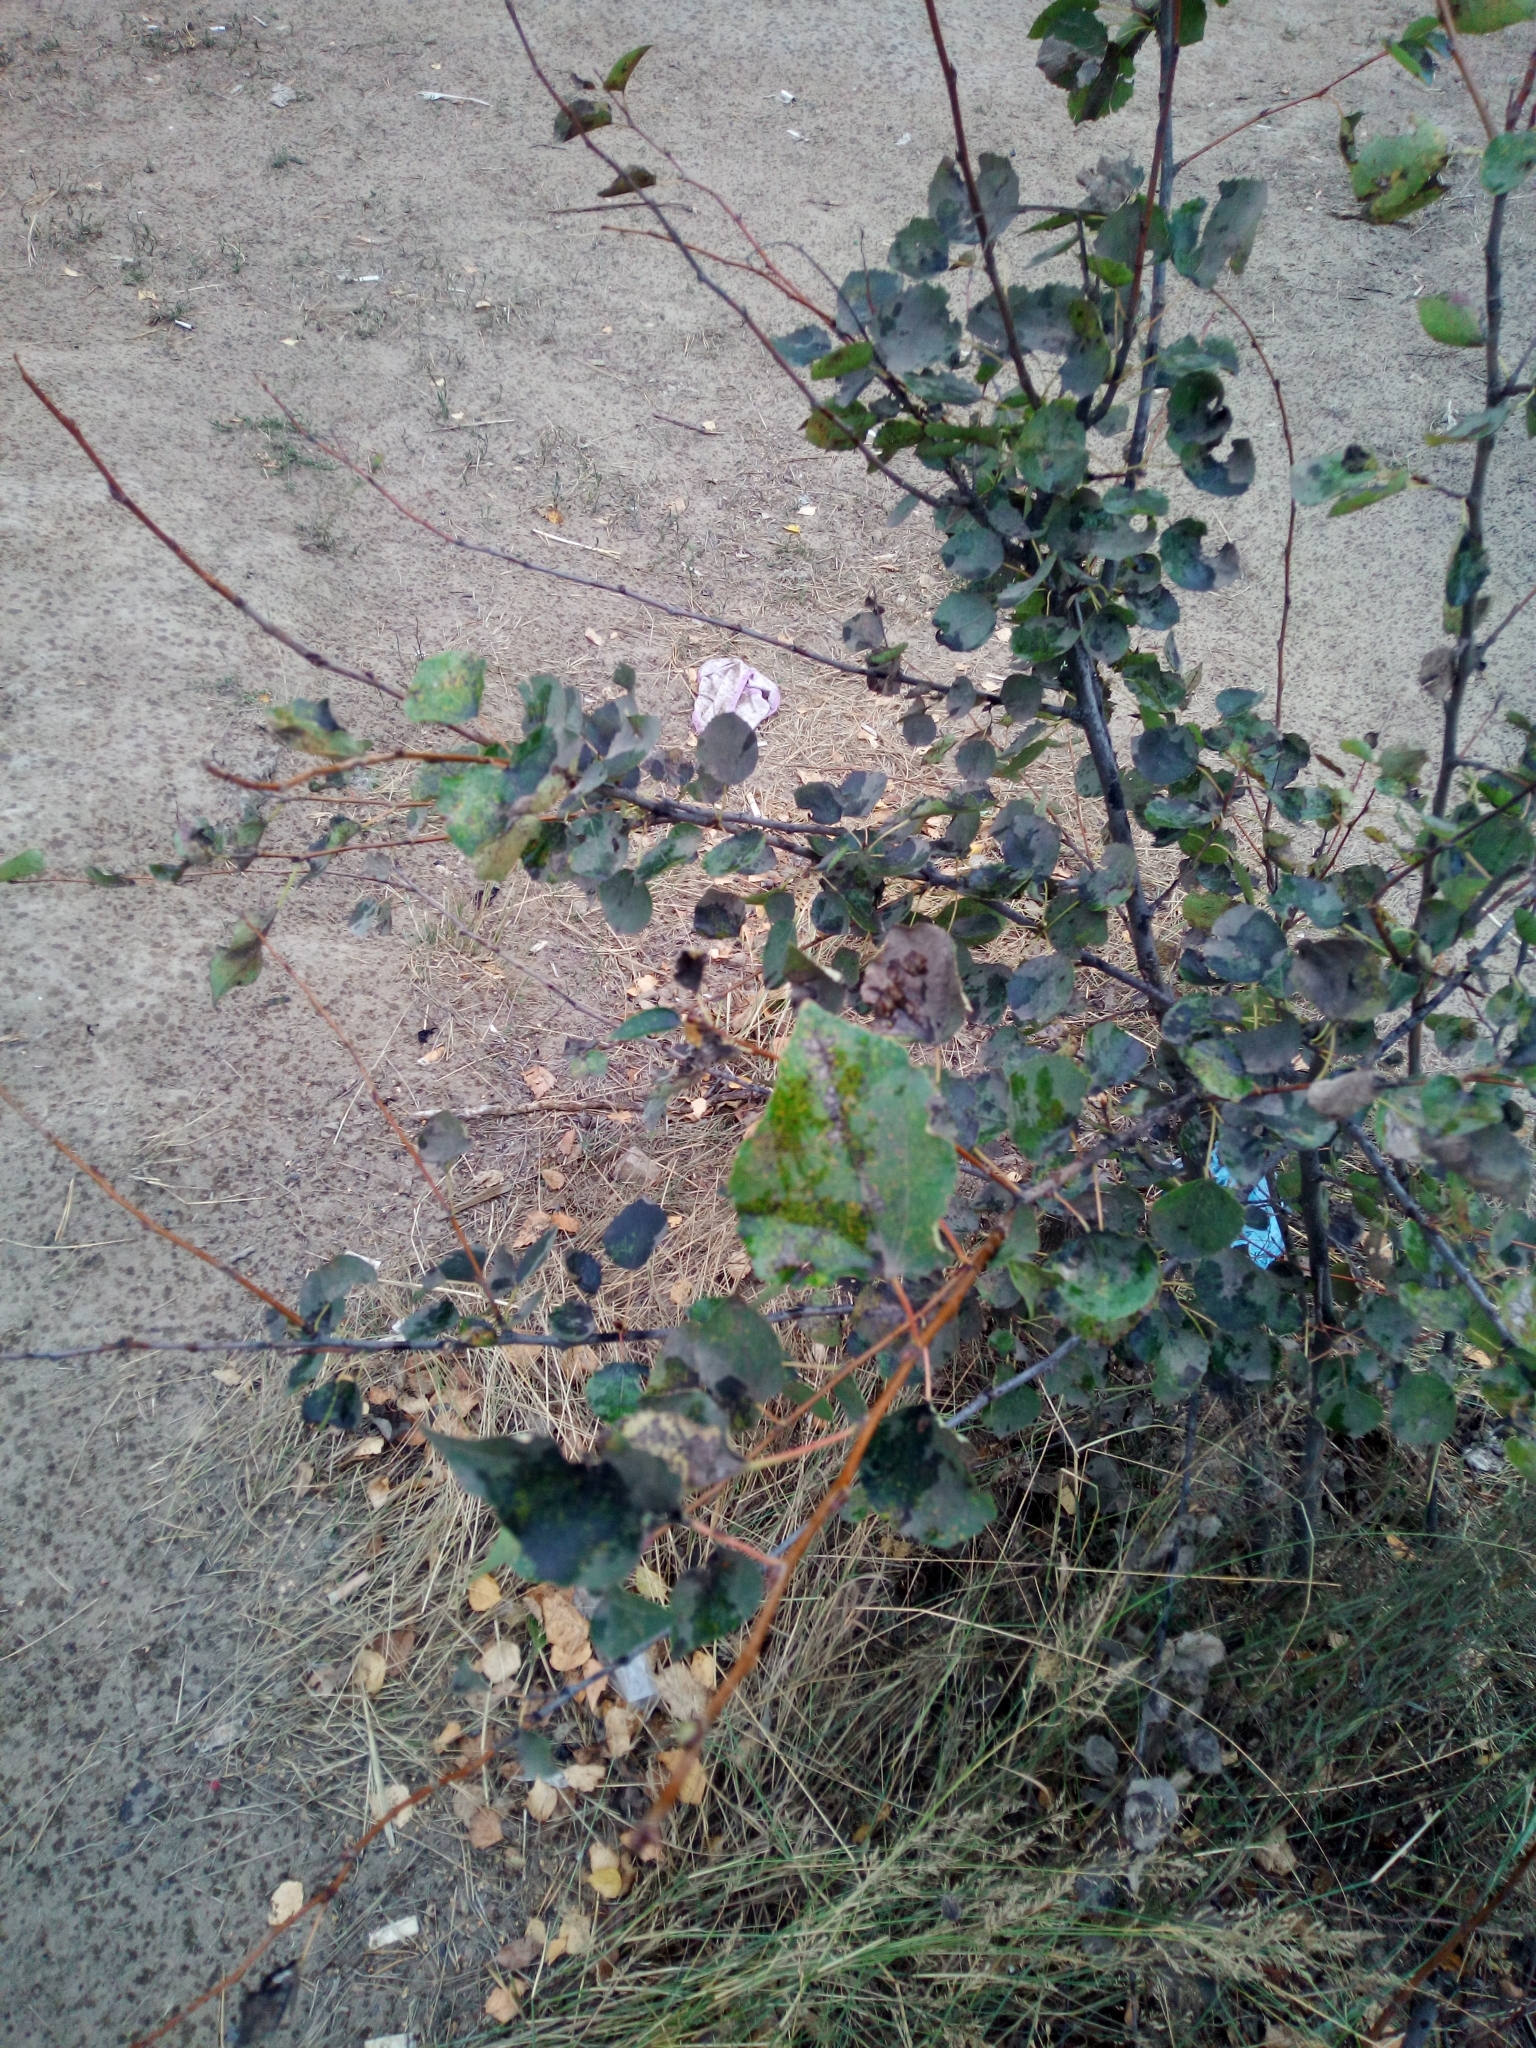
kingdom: Plantae
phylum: Tracheophyta
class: Magnoliopsida
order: Malpighiales
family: Salicaceae
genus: Populus
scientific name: Populus tremula
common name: European aspen
